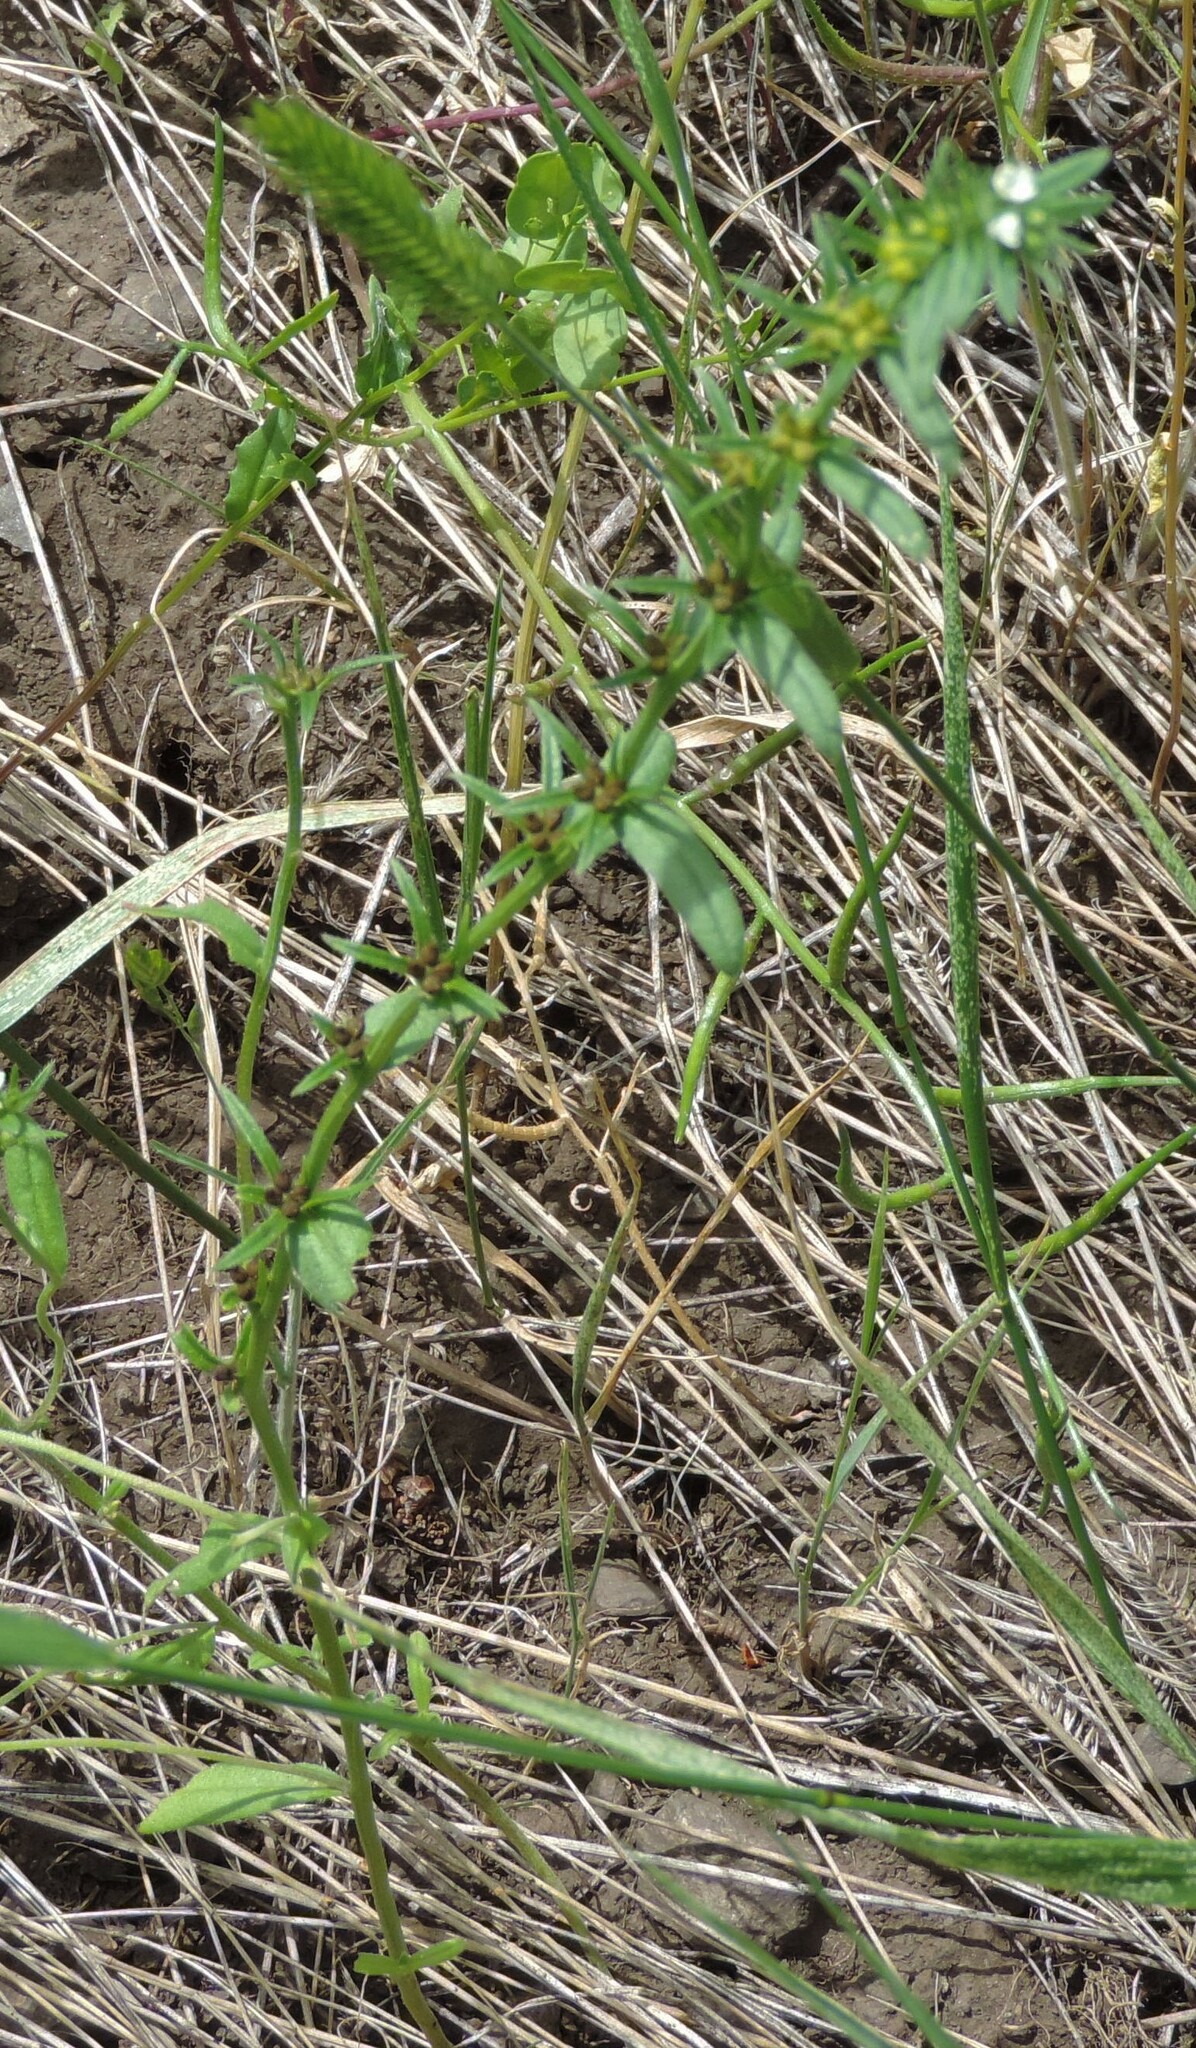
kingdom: Plantae
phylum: Tracheophyta
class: Magnoliopsida
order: Boraginales
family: Boraginaceae
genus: Buglossoides
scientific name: Buglossoides arvensis
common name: Corn gromwell
